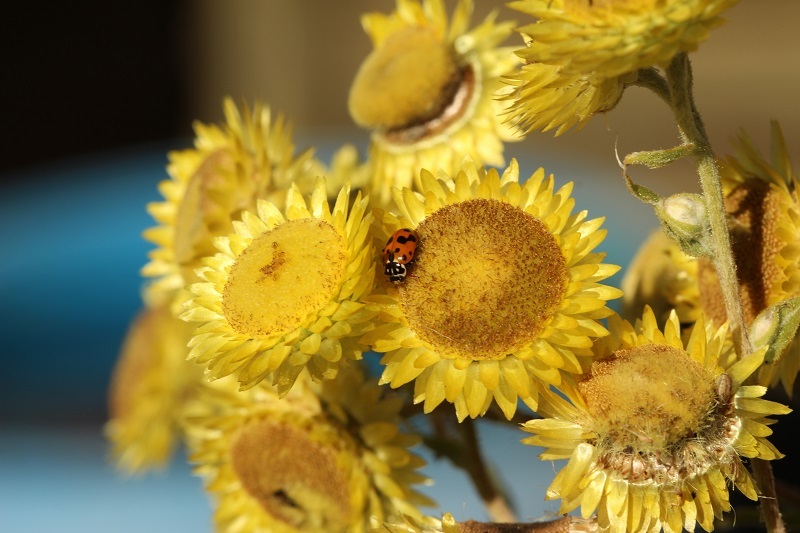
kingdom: Animalia
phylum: Arthropoda
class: Insecta
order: Coleoptera
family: Coccinellidae
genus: Hippodamia
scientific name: Hippodamia variegata
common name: Ladybird beetle
